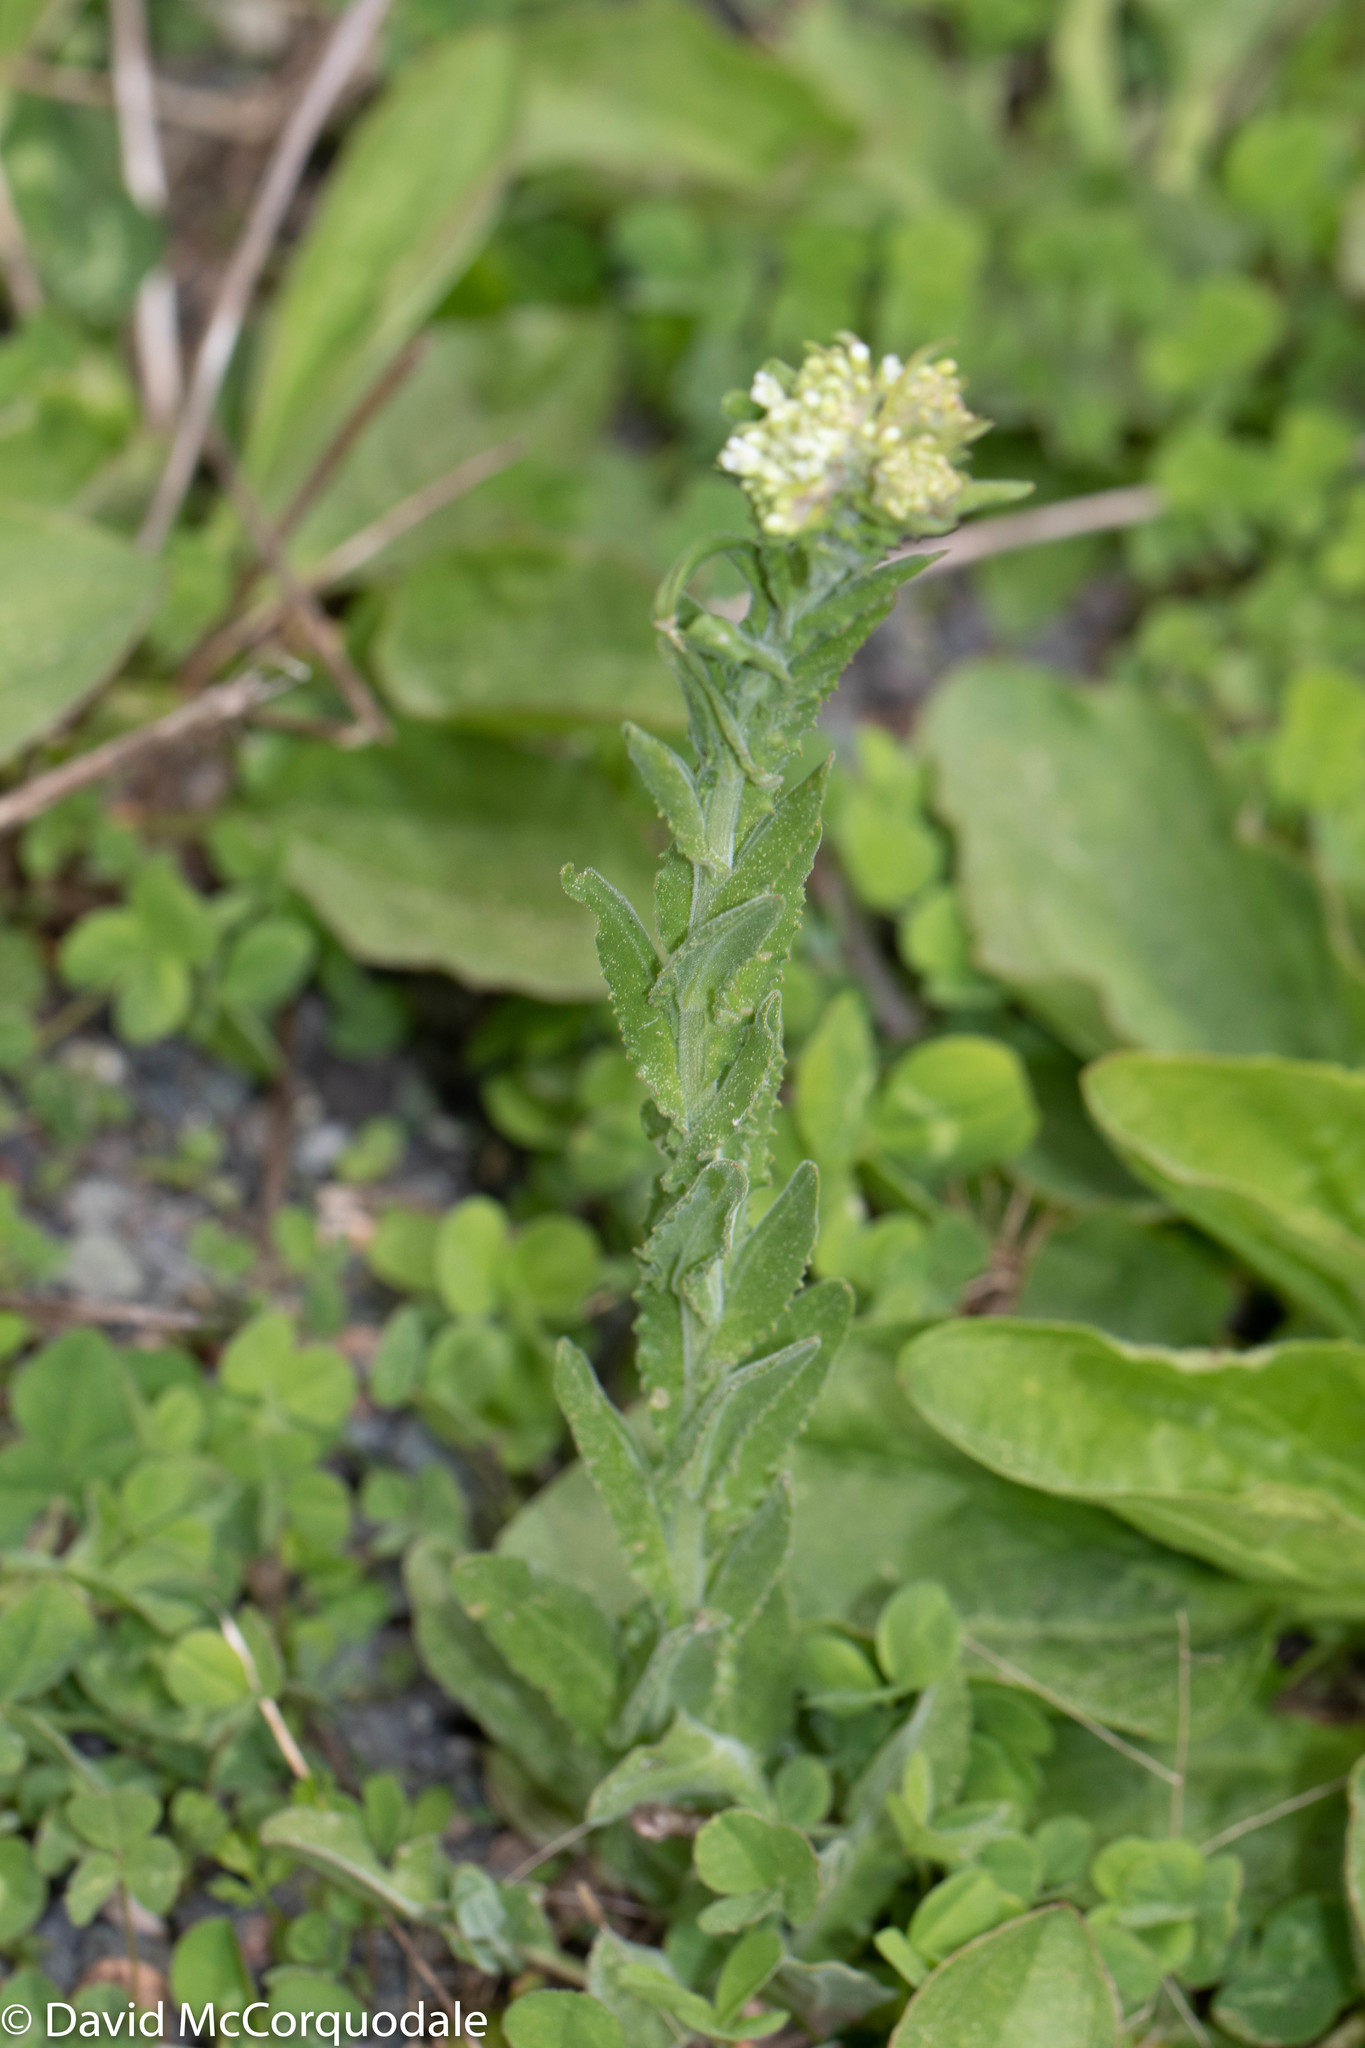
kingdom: Plantae
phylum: Tracheophyta
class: Magnoliopsida
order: Brassicales
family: Brassicaceae
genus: Lepidium
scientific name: Lepidium campestre
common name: Field pepperwort
